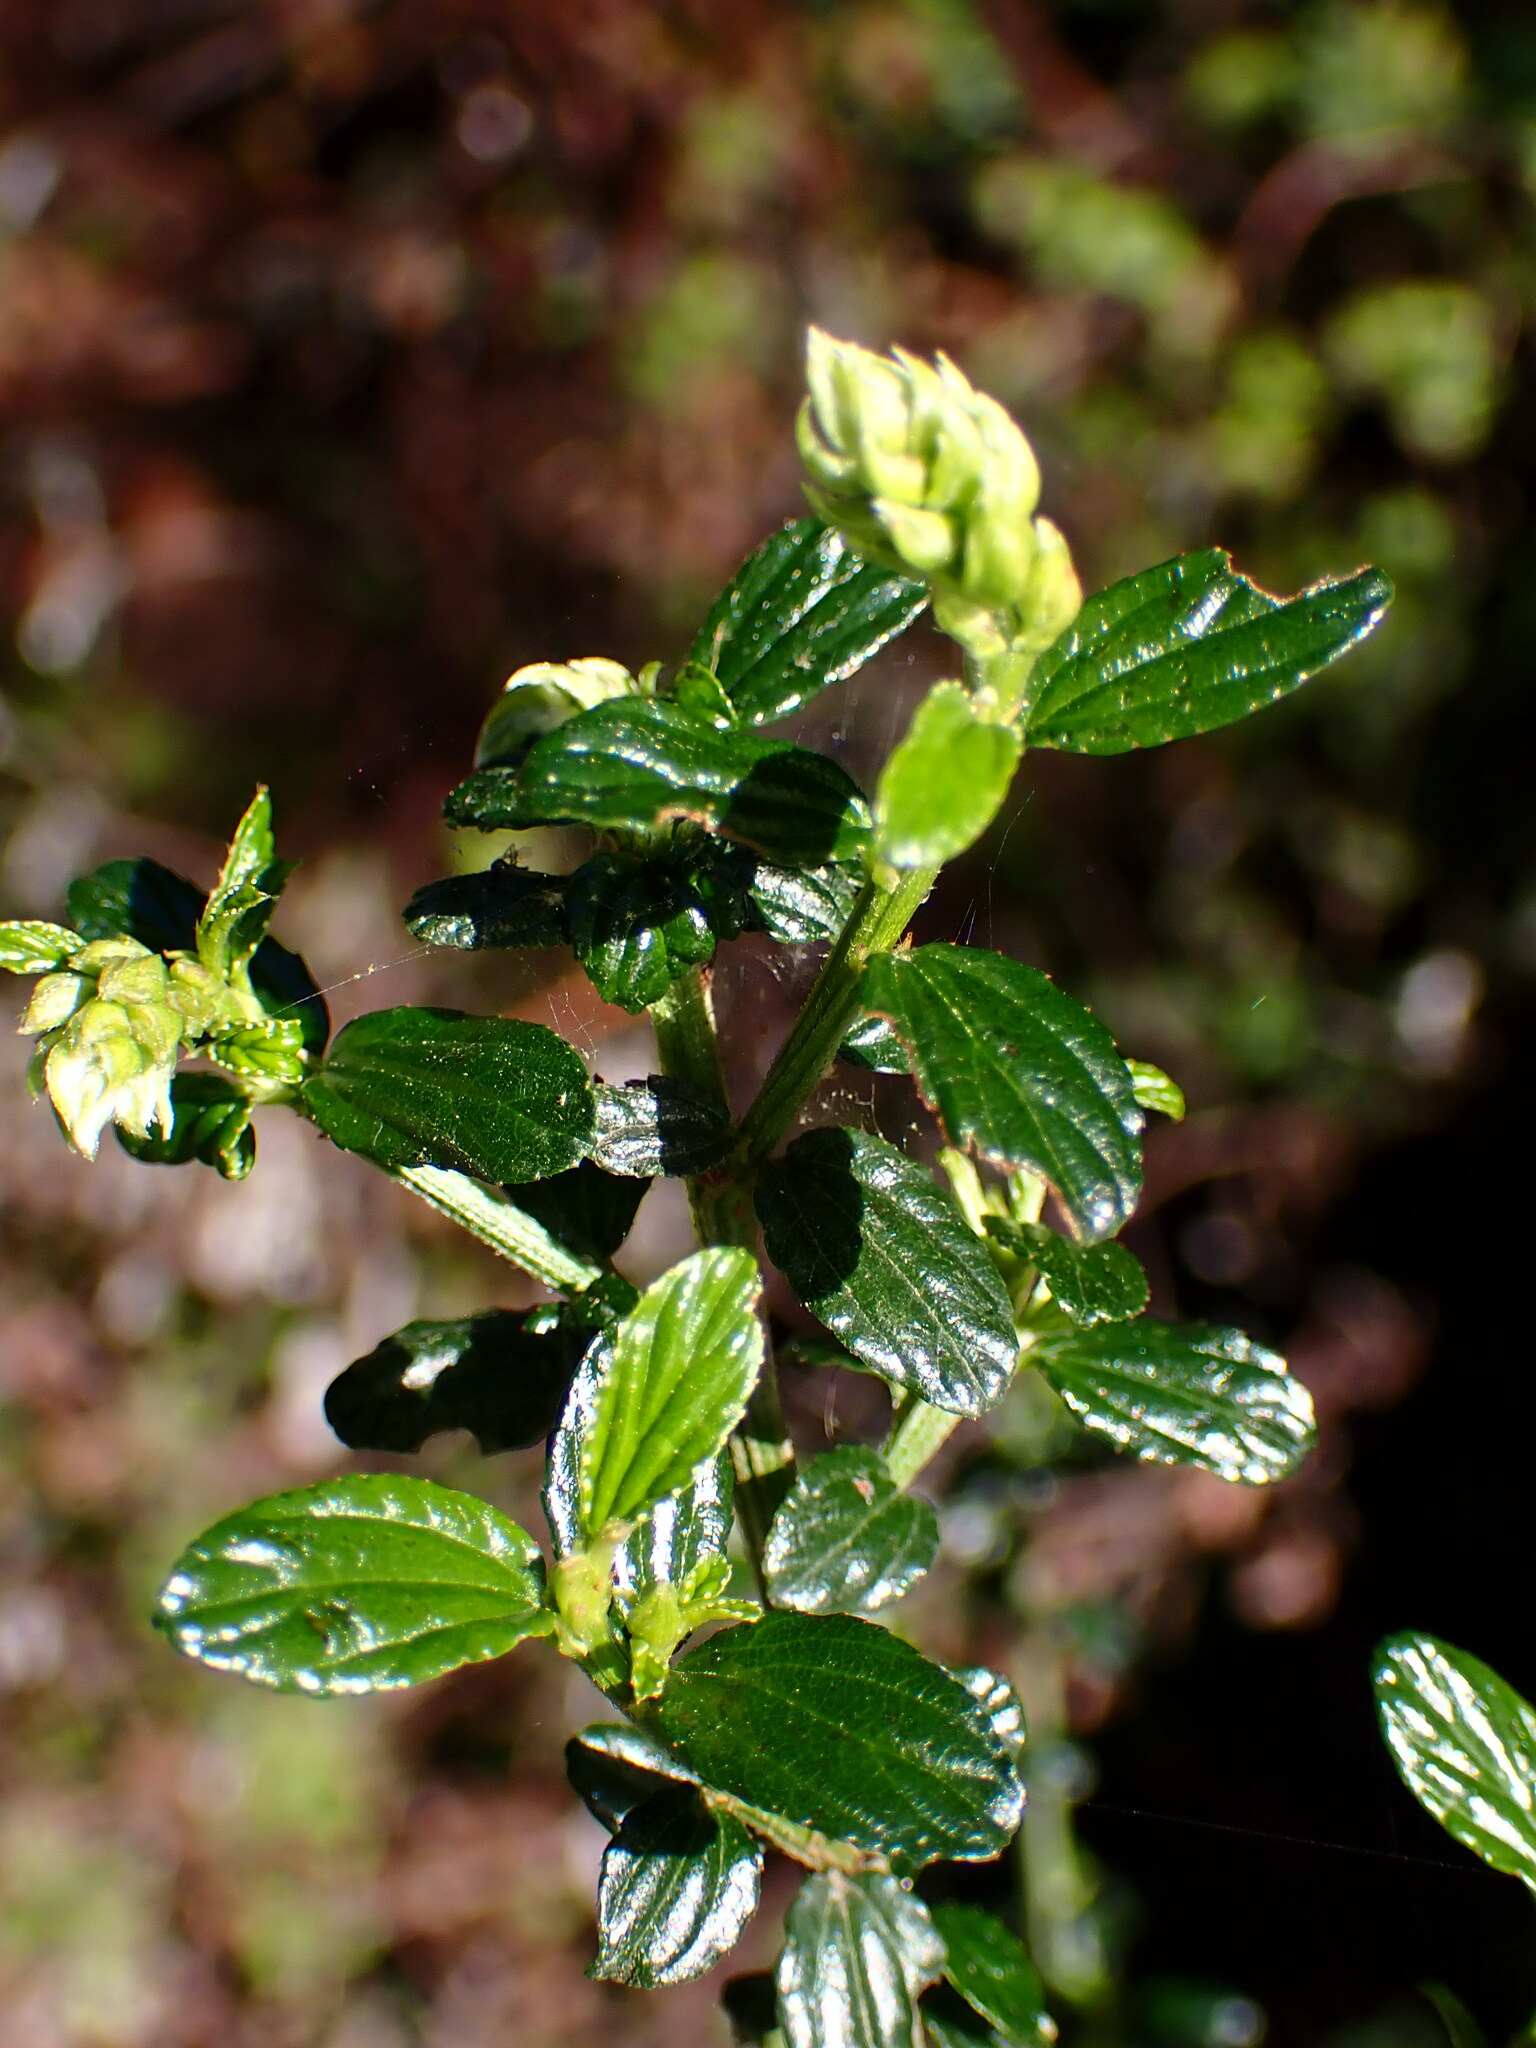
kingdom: Plantae
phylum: Tracheophyta
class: Magnoliopsida
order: Rosales
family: Rhamnaceae
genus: Ceanothus
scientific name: Ceanothus thyrsiflorus
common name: California-lilac
